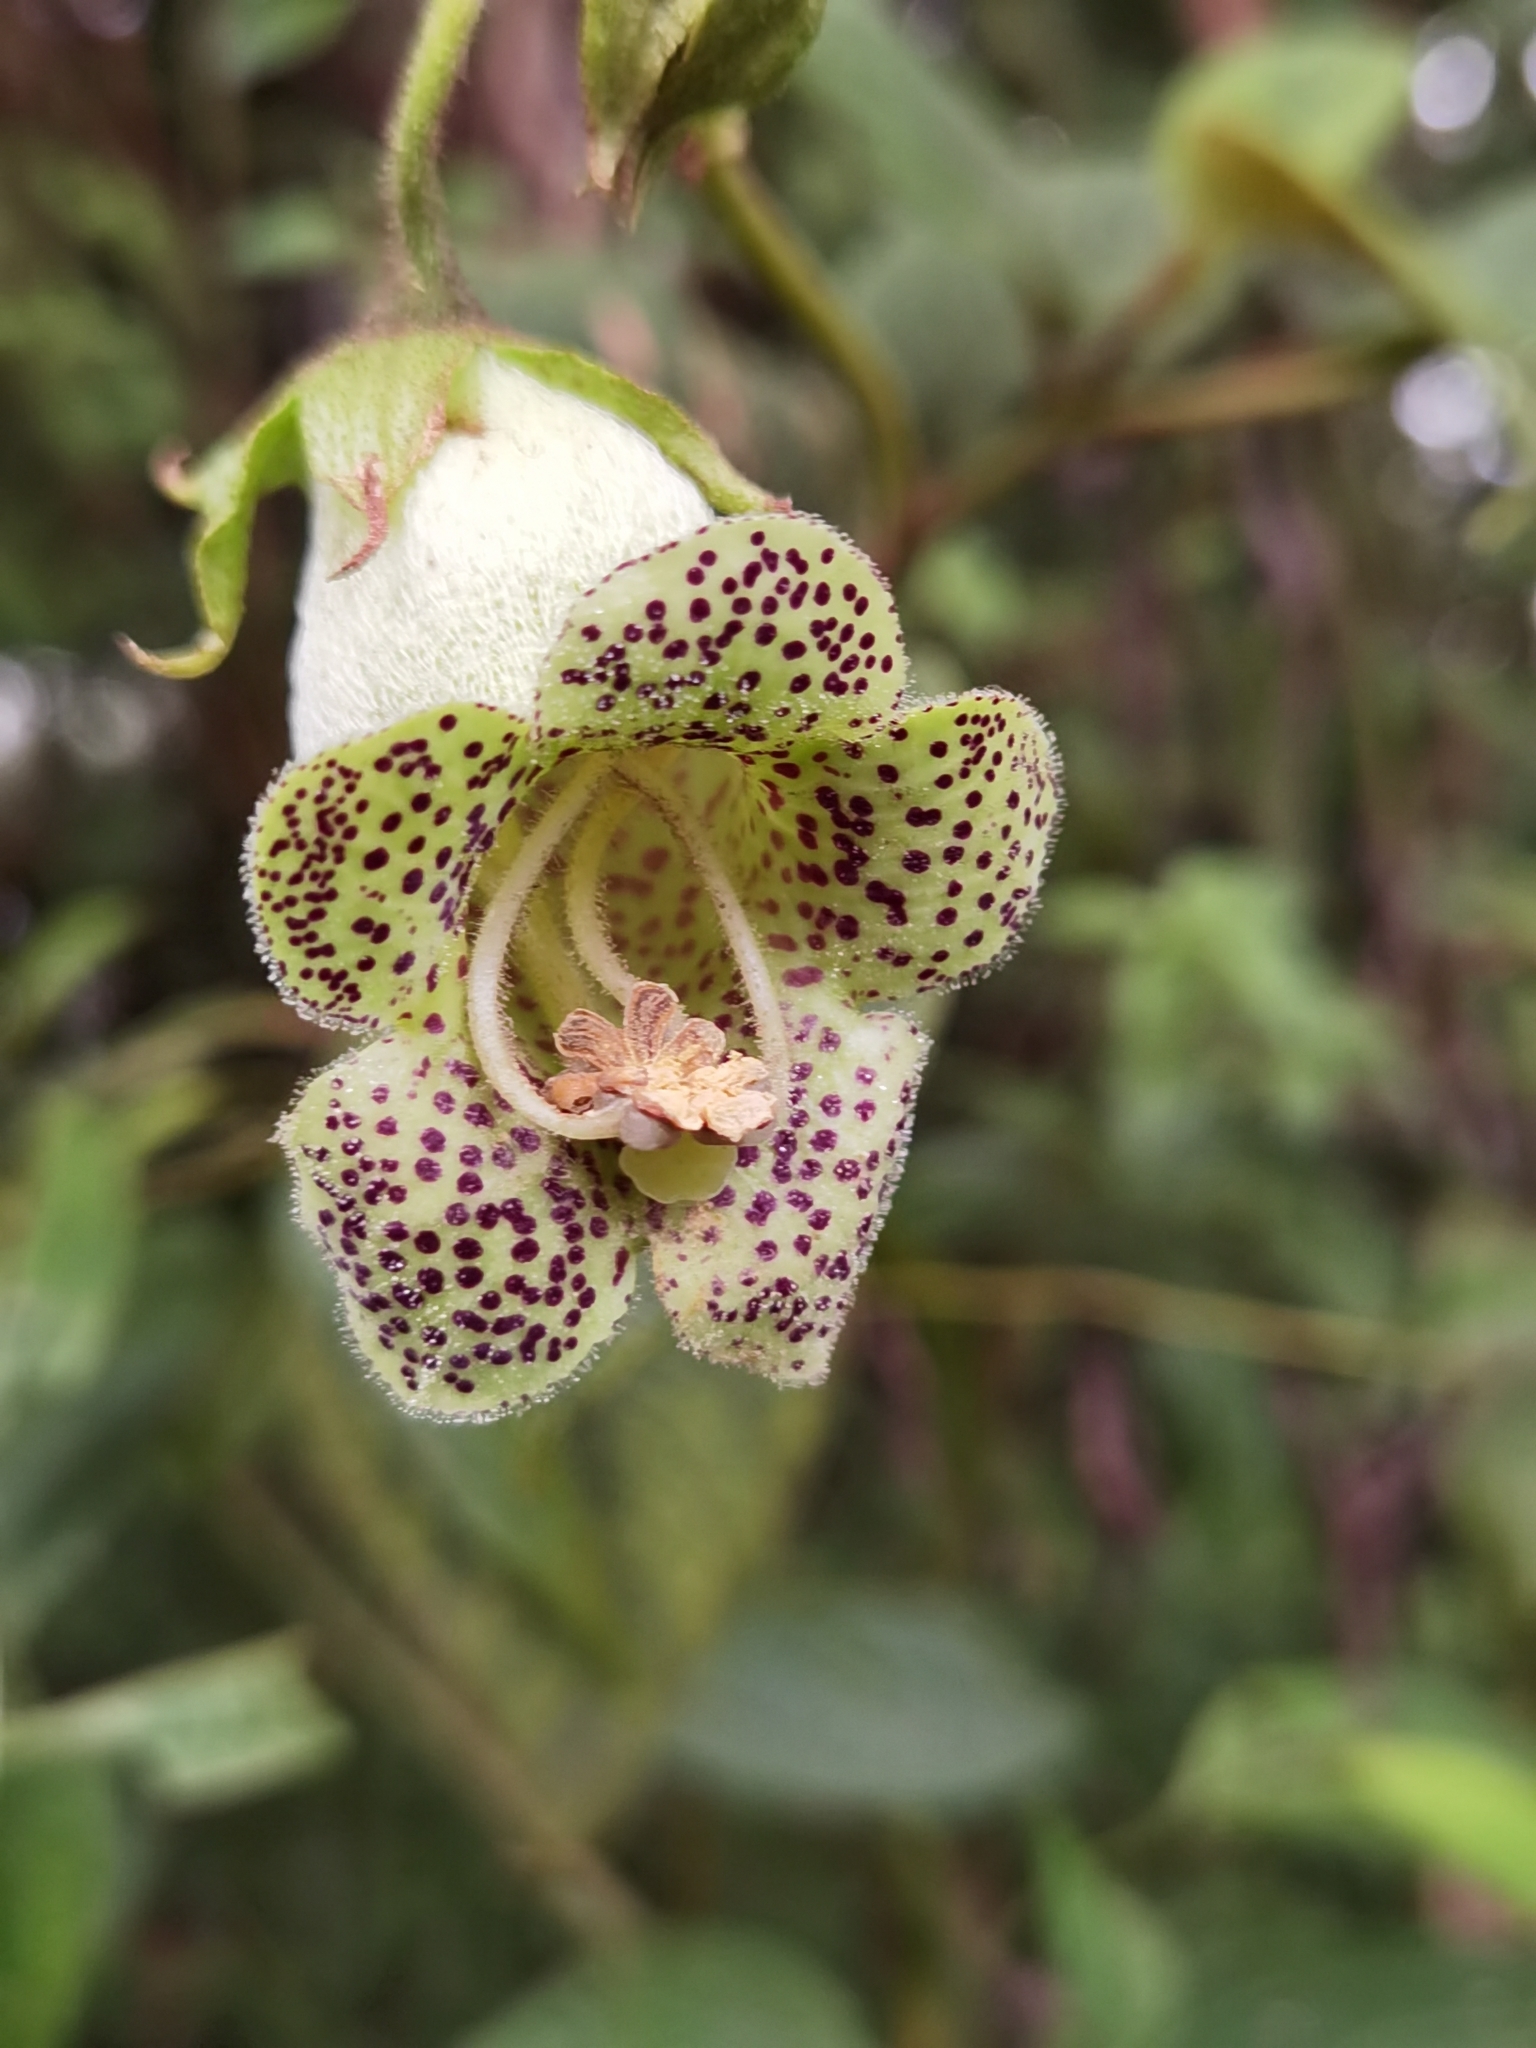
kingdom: Plantae
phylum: Tracheophyta
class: Magnoliopsida
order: Lamiales
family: Gesneriaceae
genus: Kohleria
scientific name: Kohleria tigridia
